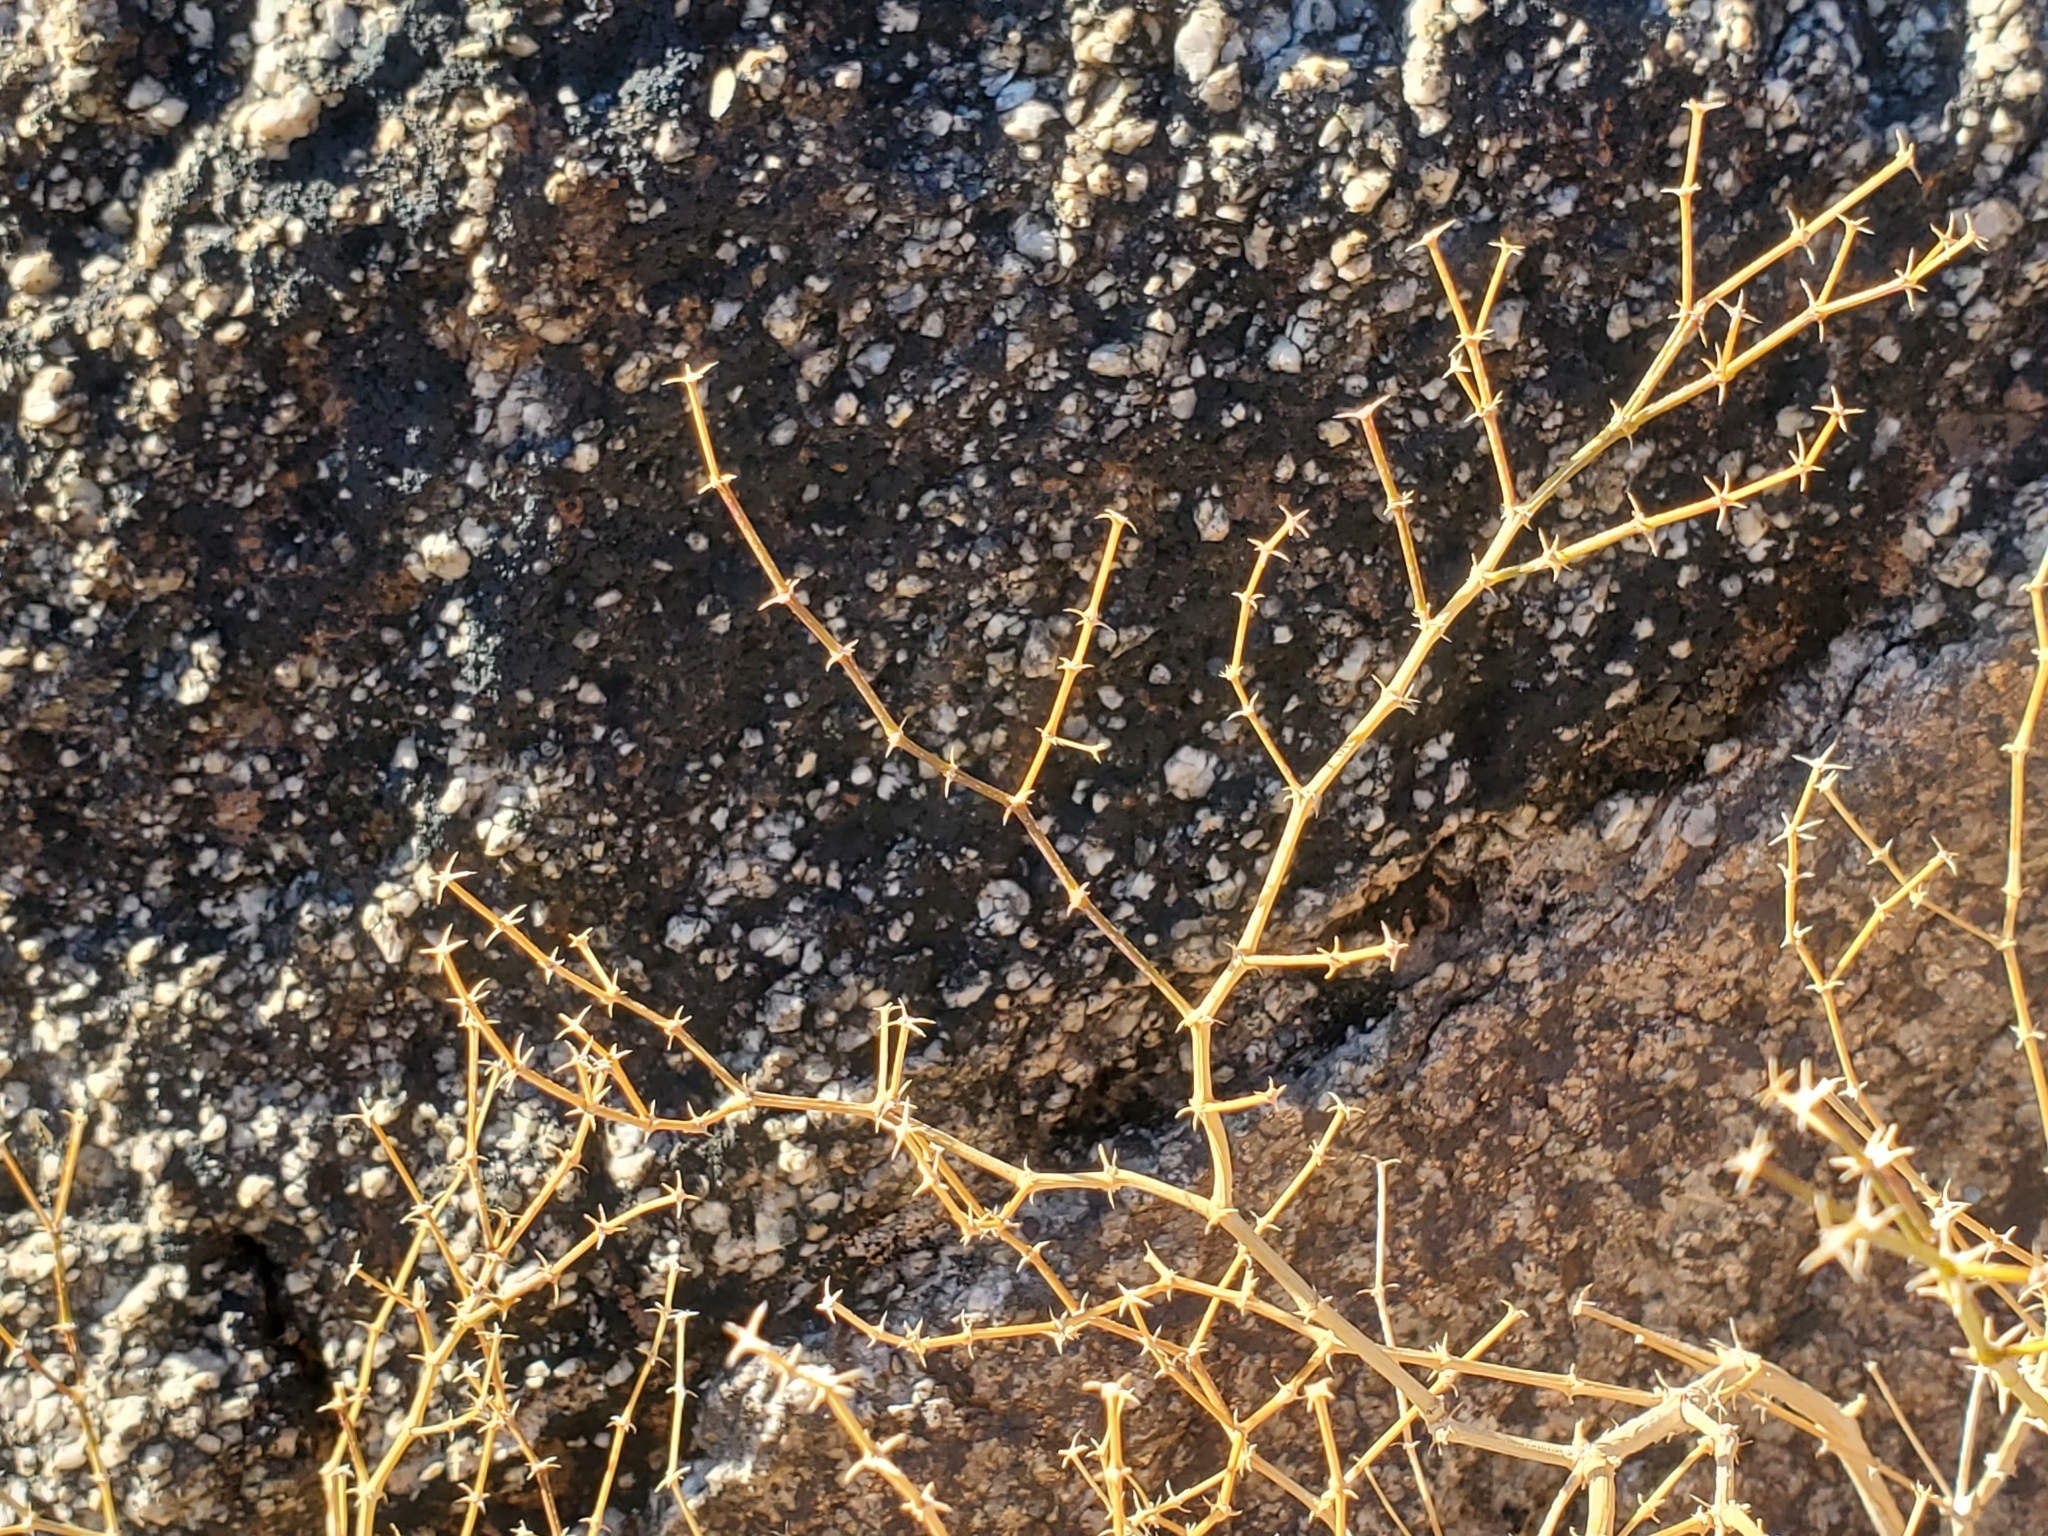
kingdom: Plantae
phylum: Tracheophyta
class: Magnoliopsida
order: Zygophyllales
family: Zygophyllaceae
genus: Fagonia
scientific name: Fagonia laevis
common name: California fagonbush
